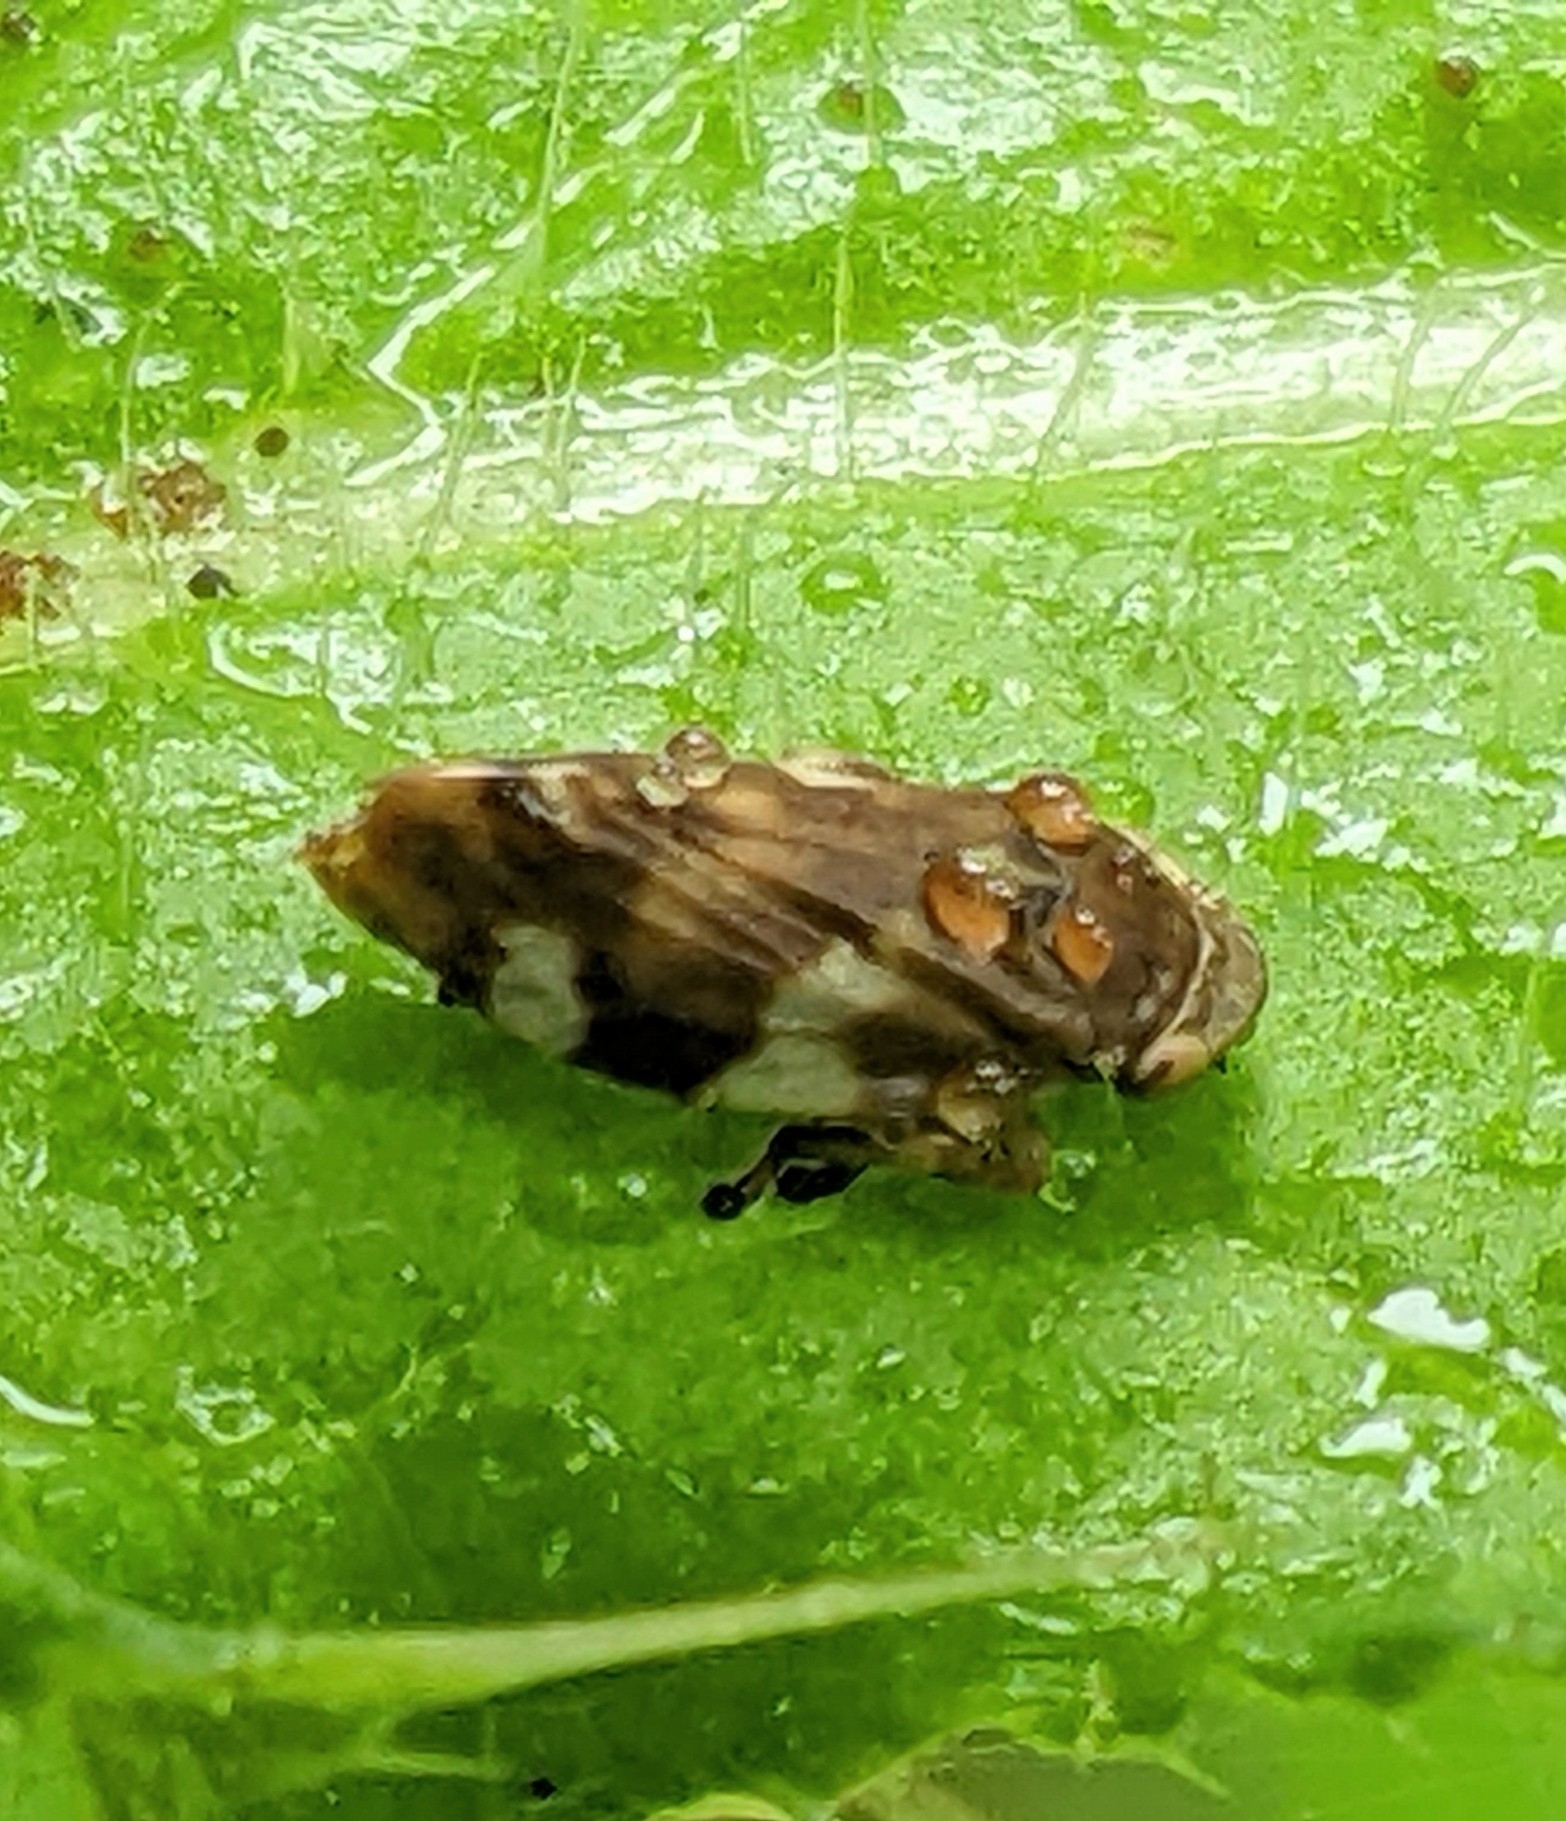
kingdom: Animalia
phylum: Arthropoda
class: Insecta
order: Hemiptera
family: Aphrophoridae
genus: Philaenus
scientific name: Philaenus spumarius
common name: Meadow spittlebug
